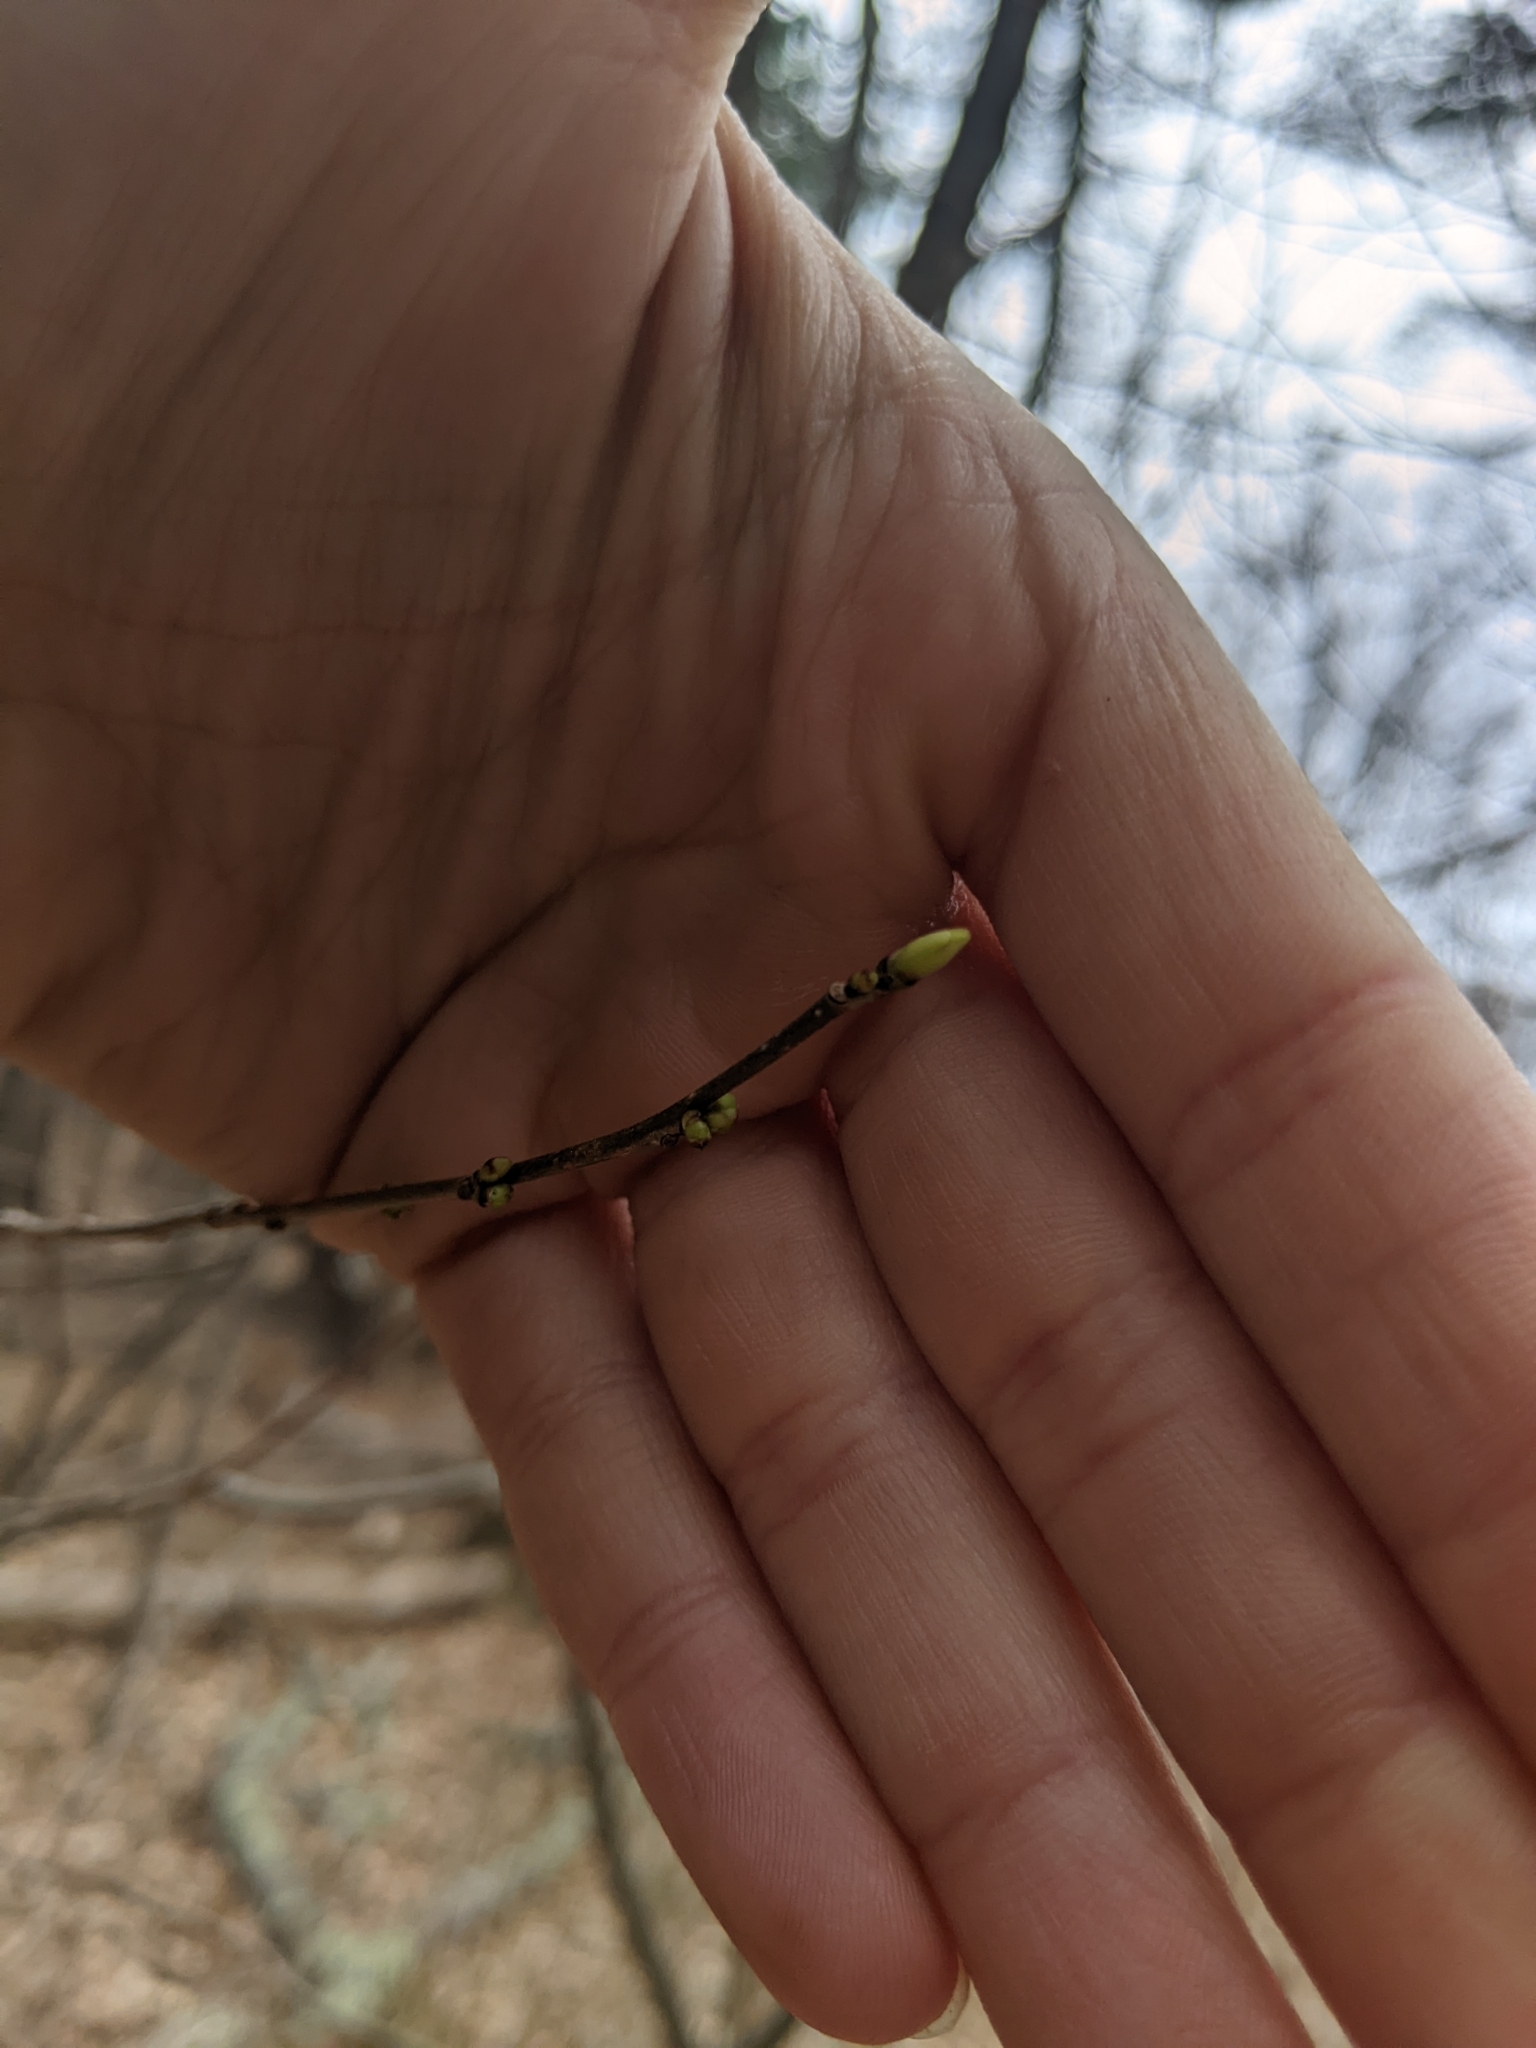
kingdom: Plantae
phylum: Tracheophyta
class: Magnoliopsida
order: Laurales
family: Lauraceae
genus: Lindera
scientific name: Lindera benzoin
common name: Spicebush
